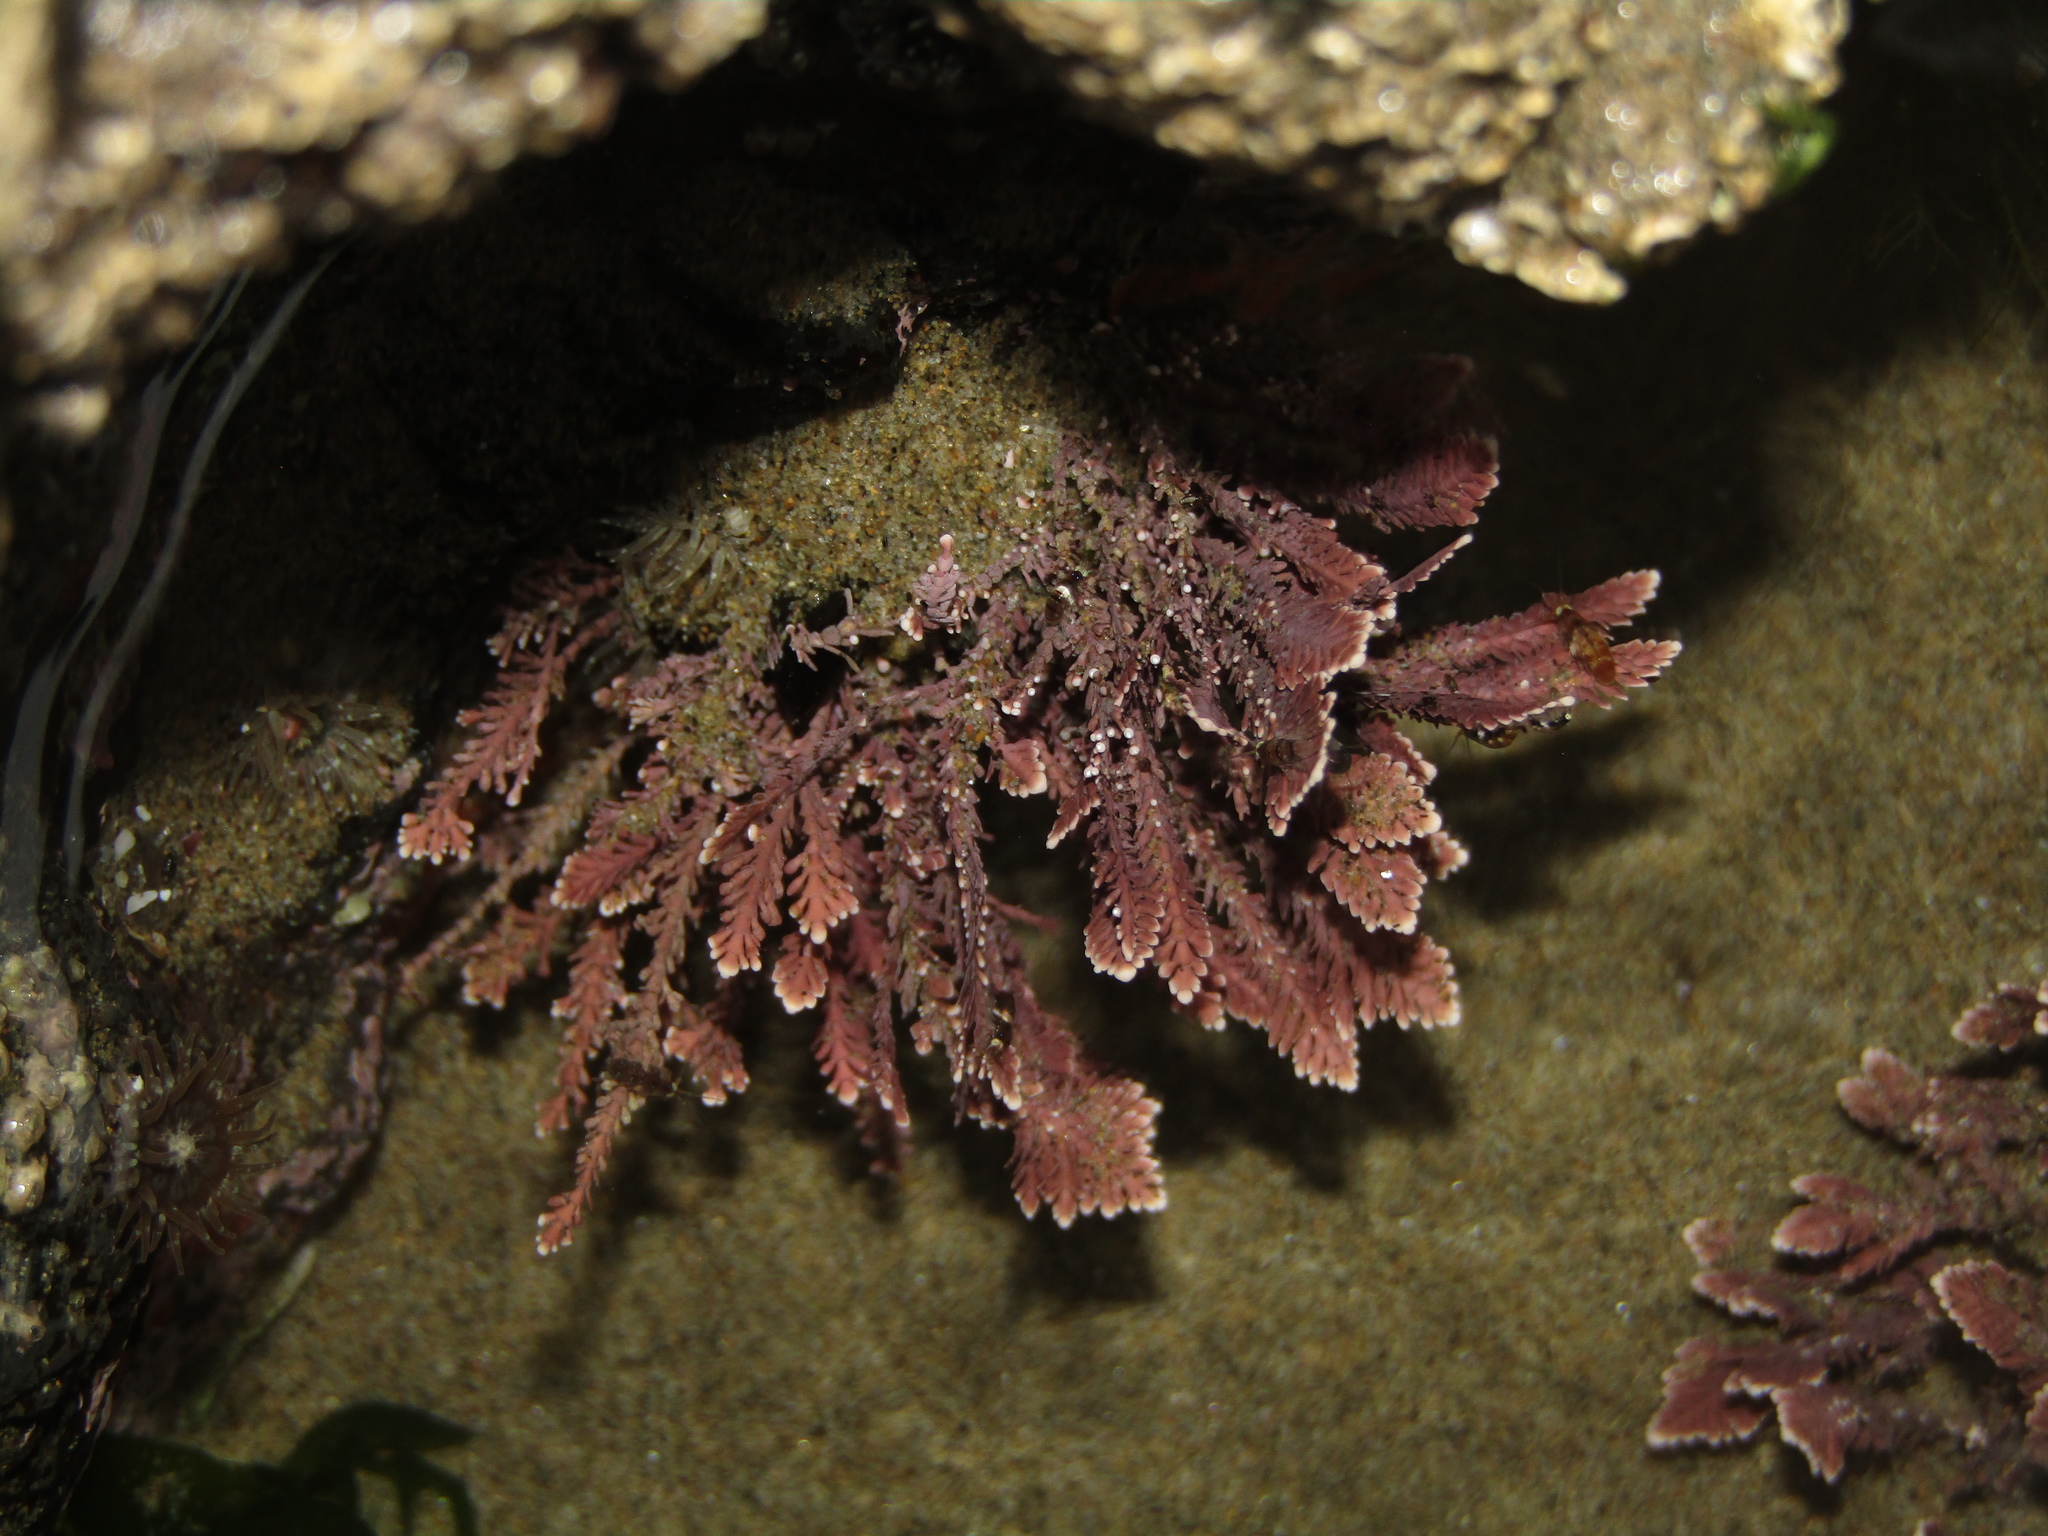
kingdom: Plantae
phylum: Rhodophyta
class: Florideophyceae
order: Corallinales
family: Corallinaceae
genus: Corallina
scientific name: Corallina officinalis
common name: Coral weed
